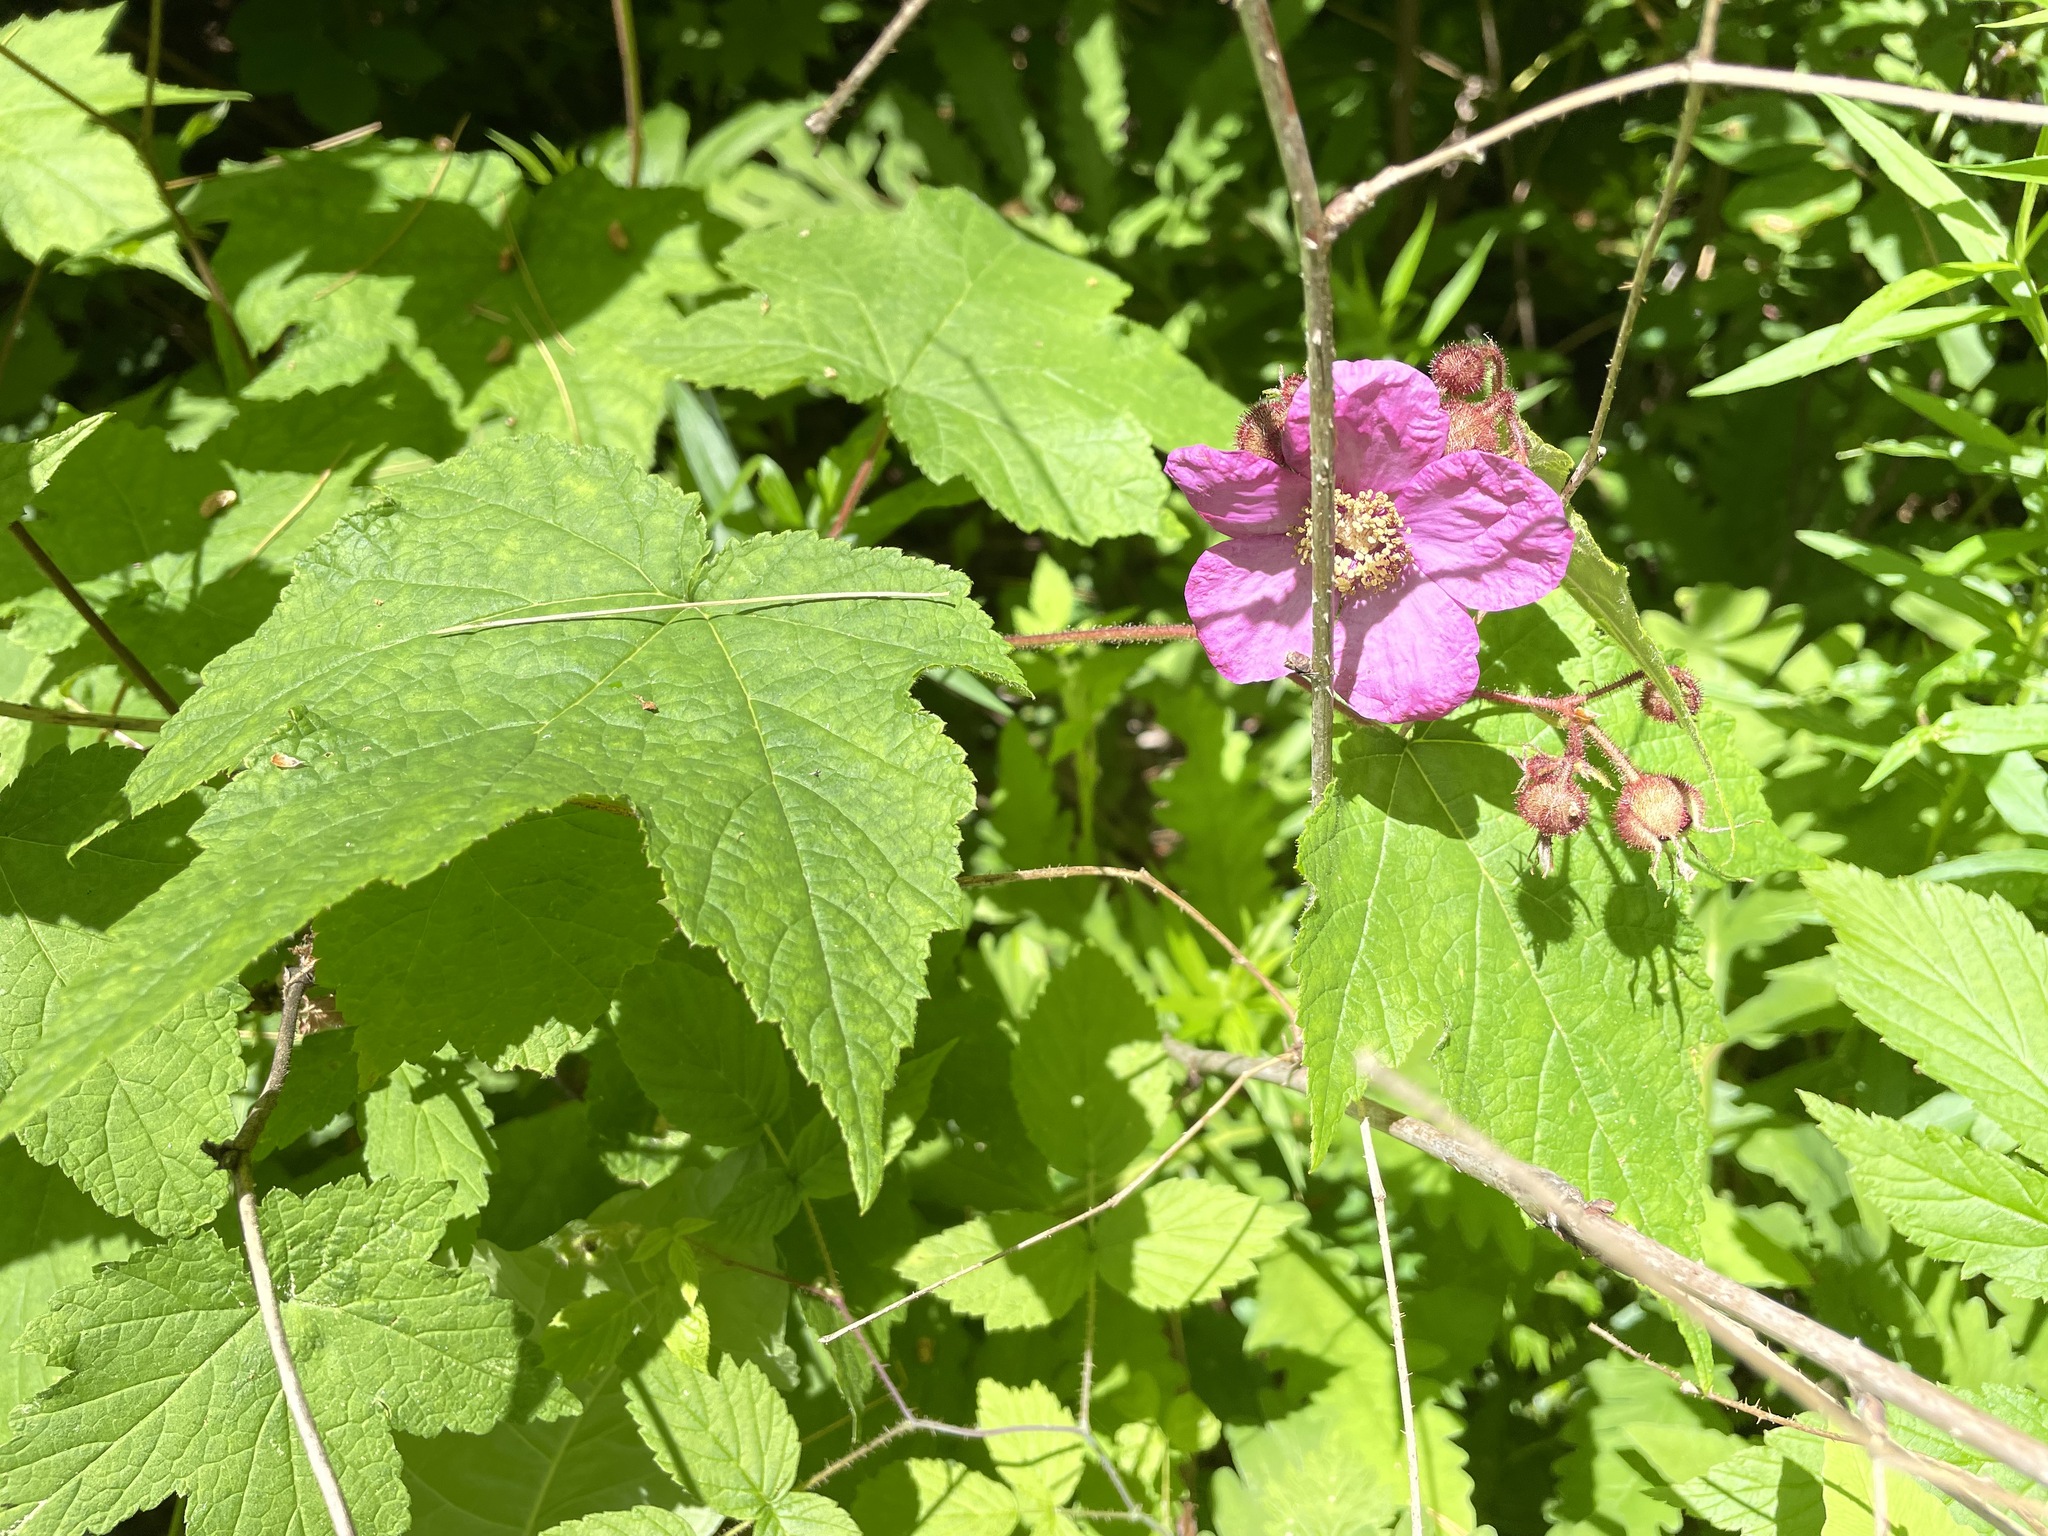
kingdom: Plantae
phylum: Tracheophyta
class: Magnoliopsida
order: Rosales
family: Rosaceae
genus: Rubus
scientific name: Rubus odoratus
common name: Purple-flowered raspberry
